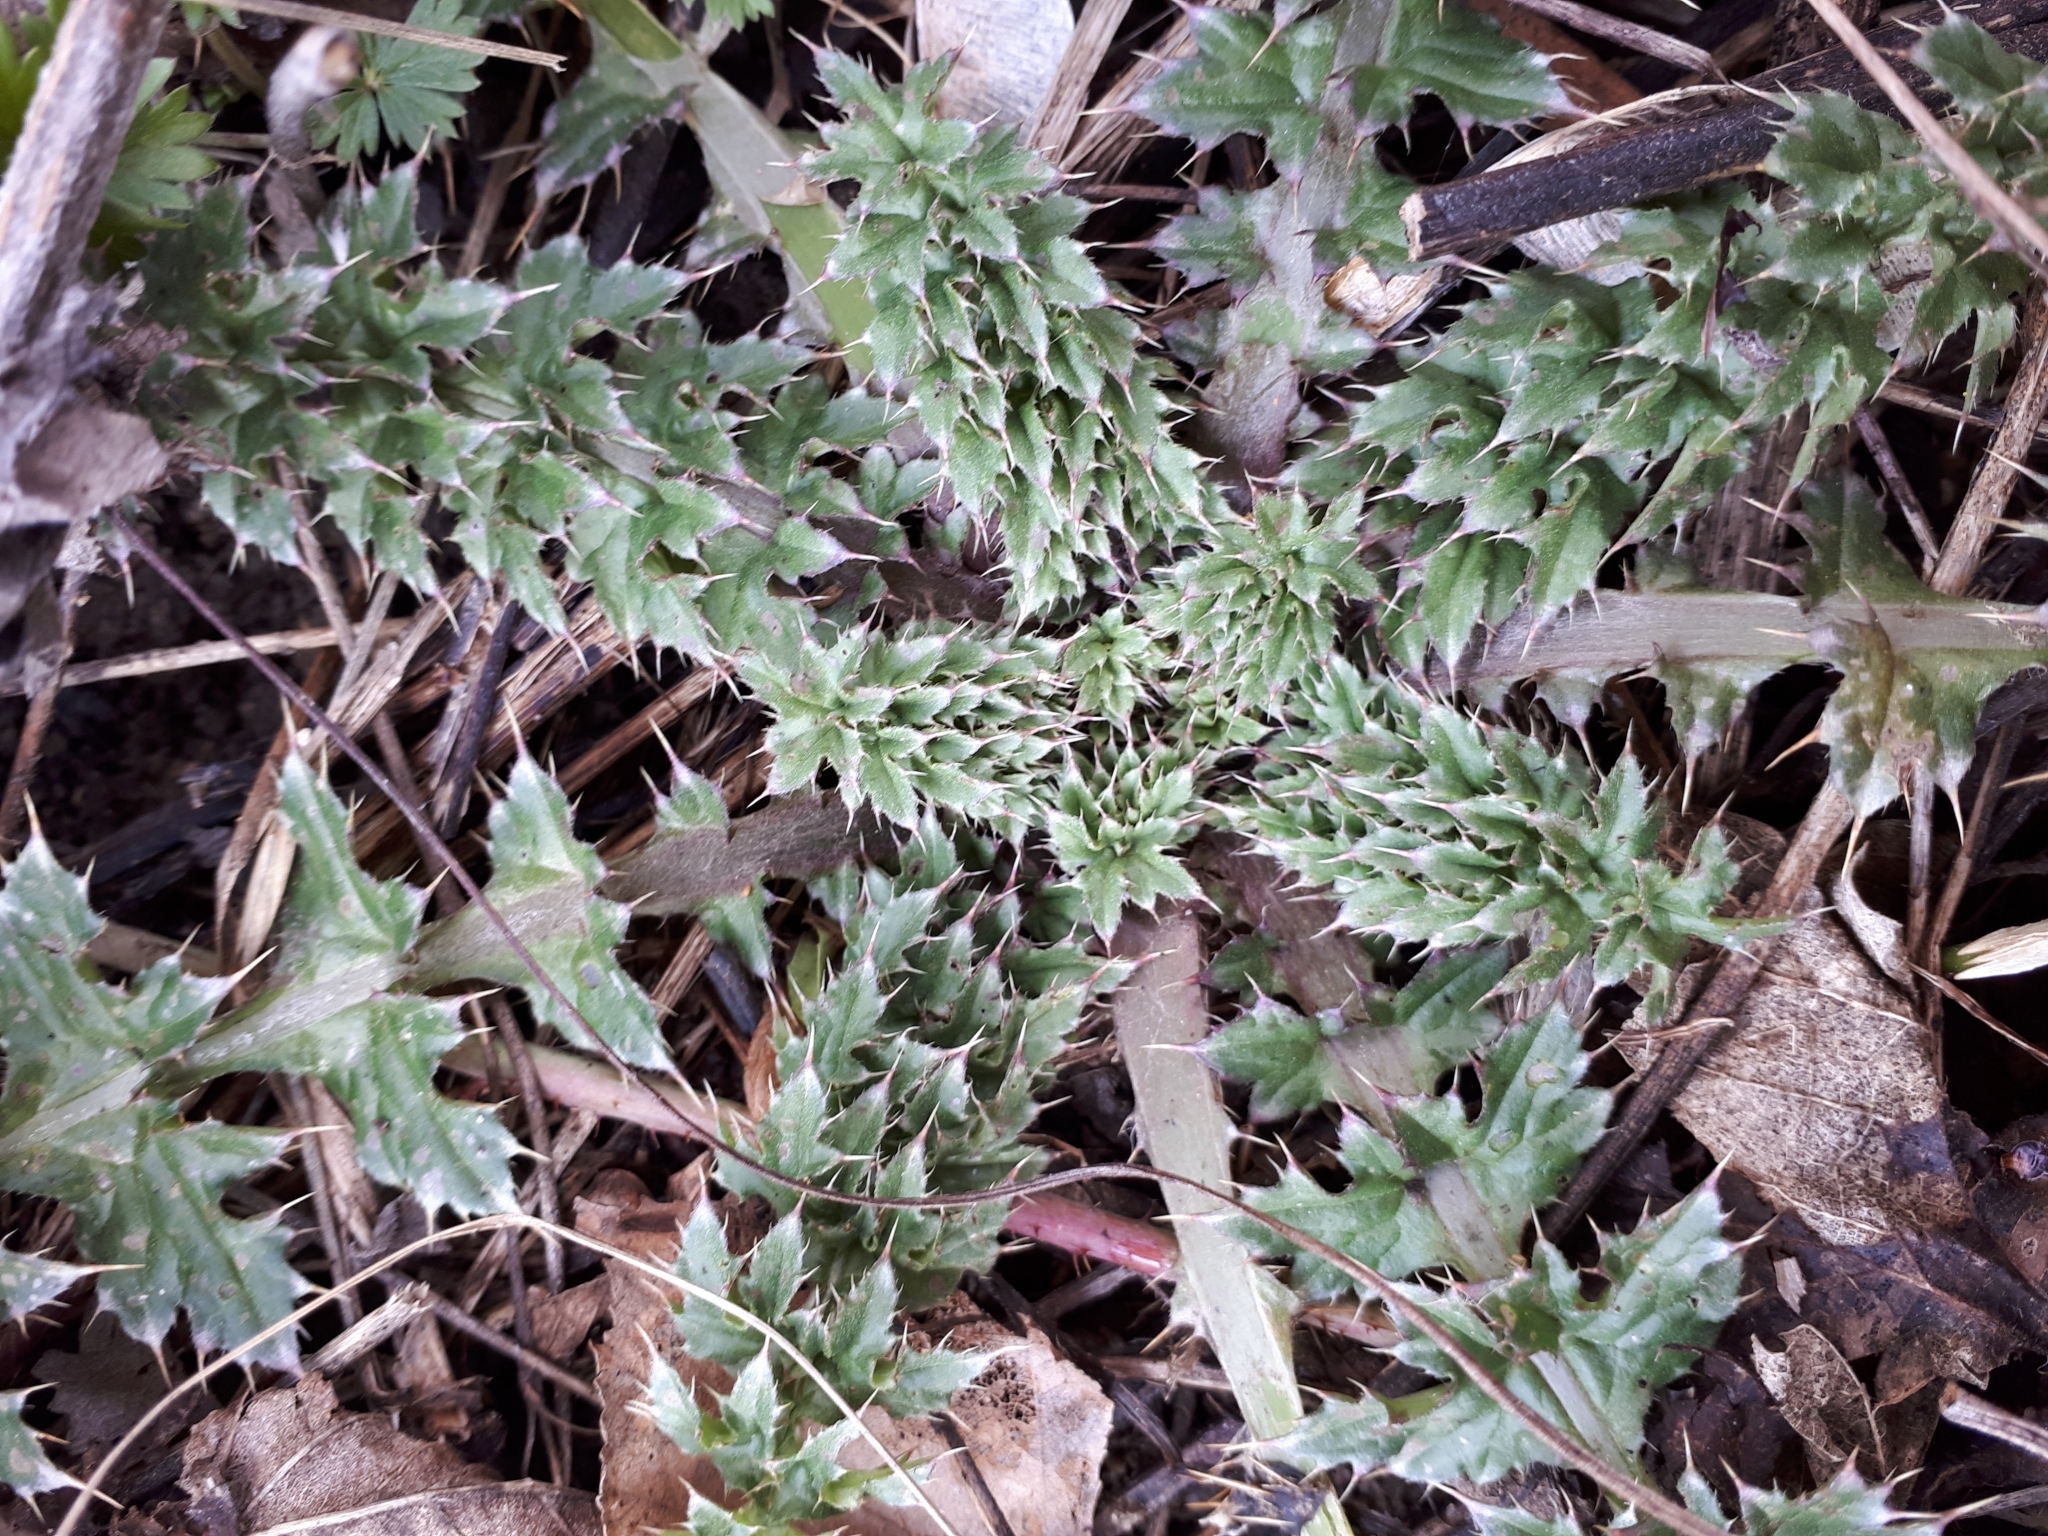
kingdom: Plantae
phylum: Tracheophyta
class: Magnoliopsida
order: Asterales
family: Asteraceae
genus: Carduus
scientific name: Carduus acanthoides
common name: Plumeless thistle
